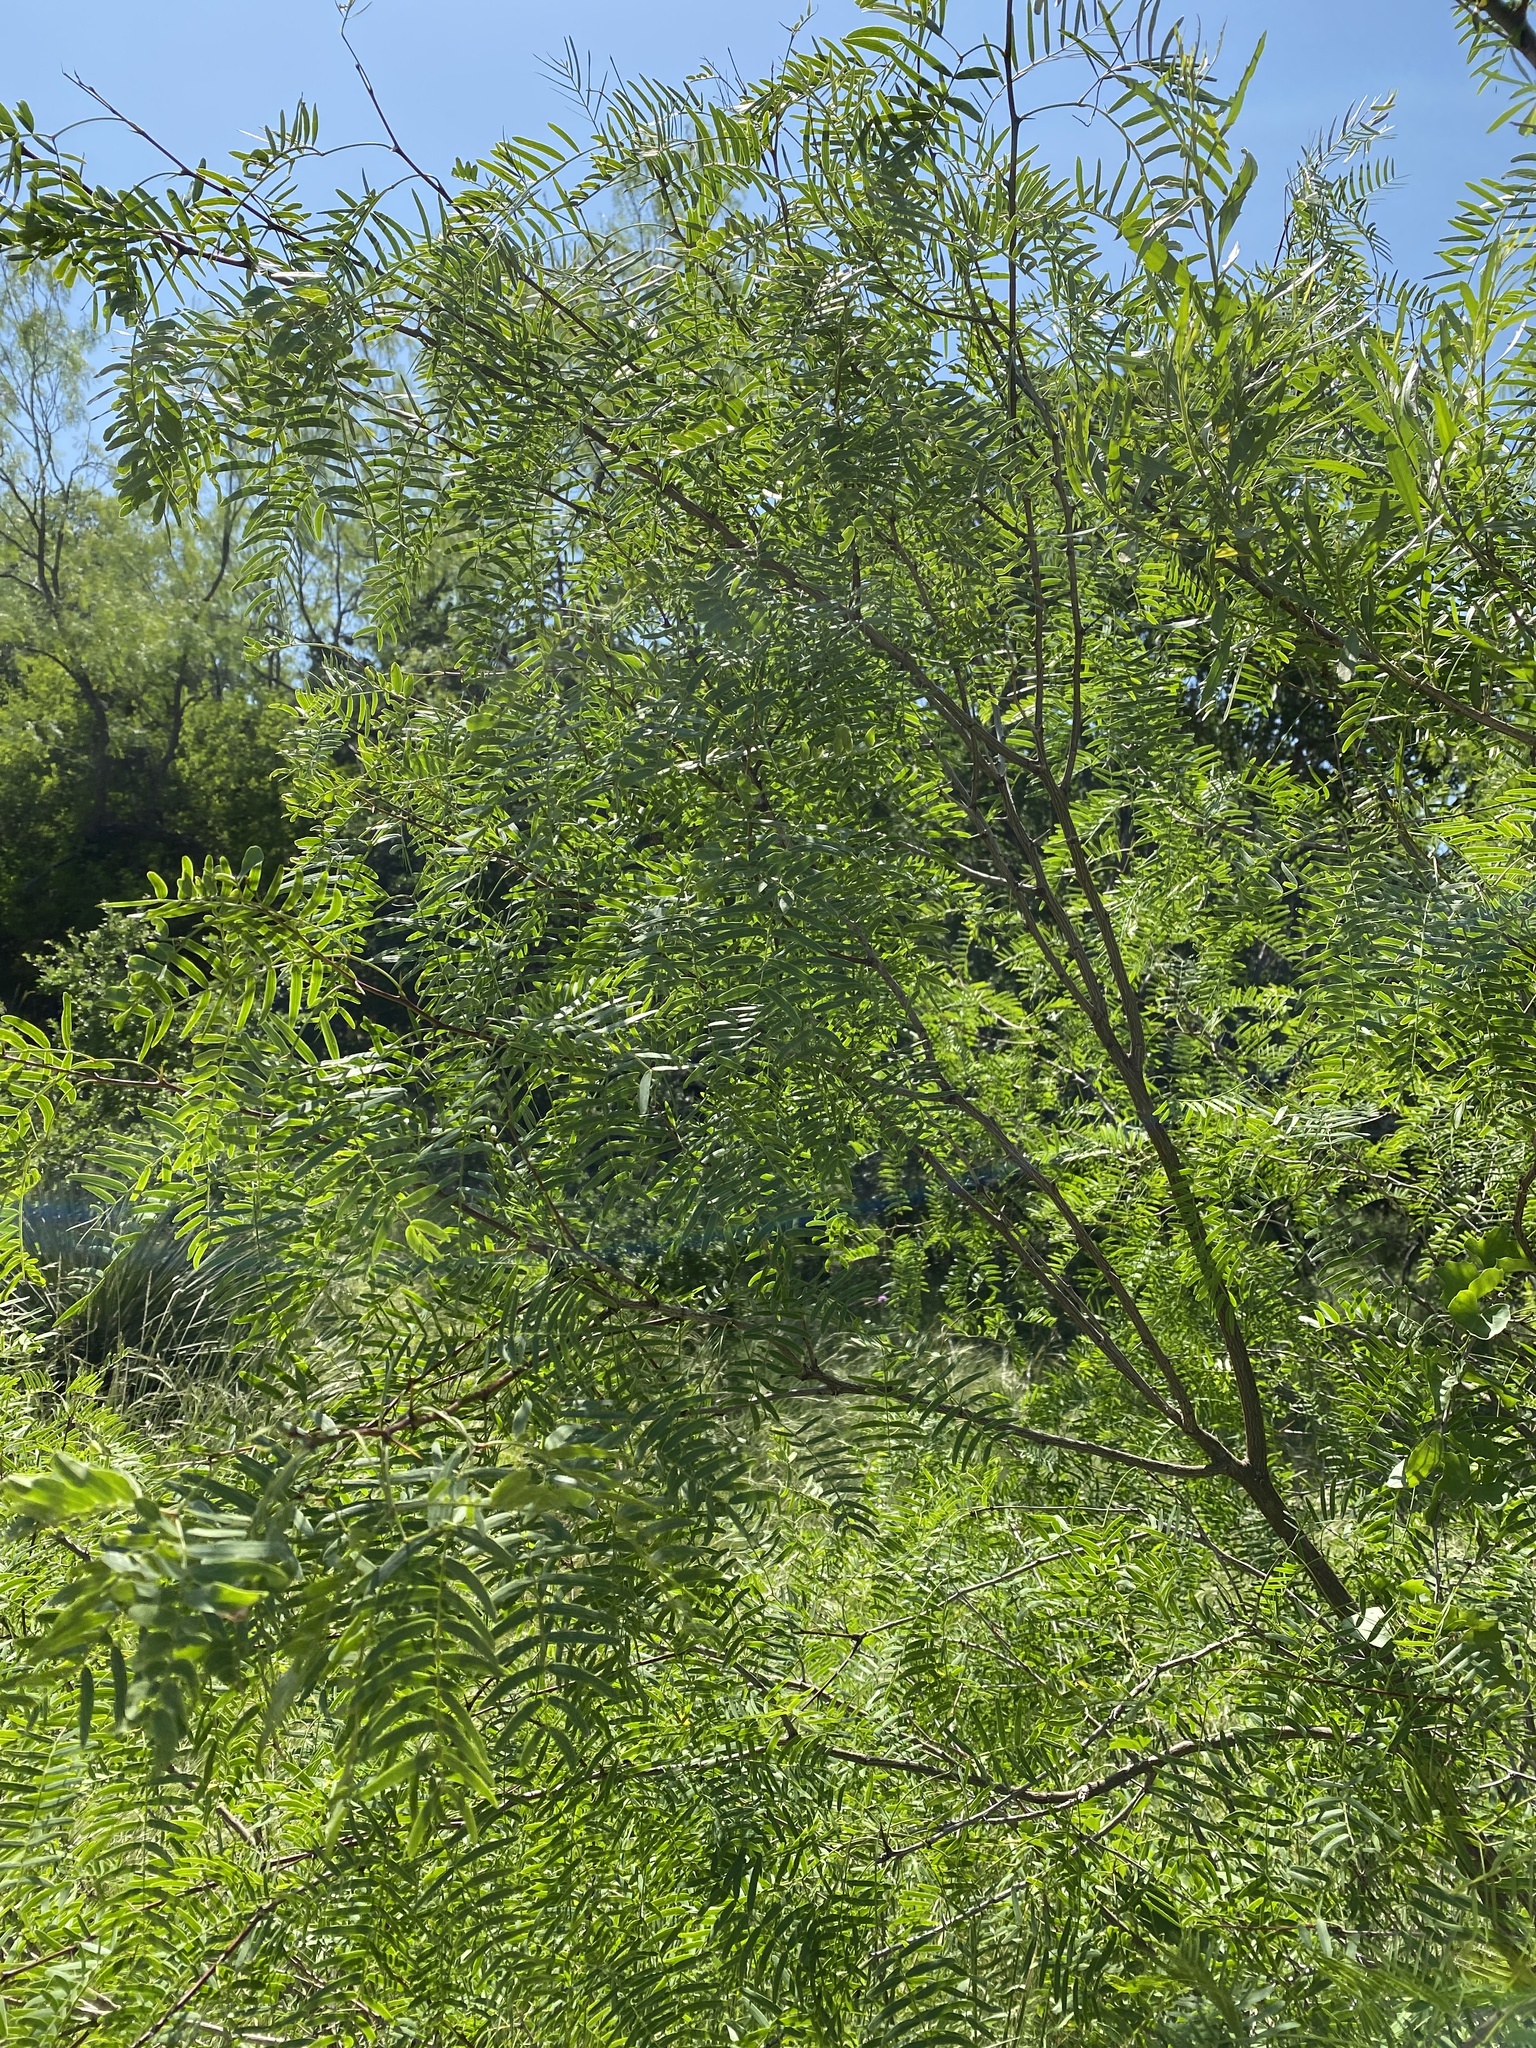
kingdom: Plantae
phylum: Tracheophyta
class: Magnoliopsida
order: Fabales
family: Fabaceae
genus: Prosopis
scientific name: Prosopis glandulosa
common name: Honey mesquite
